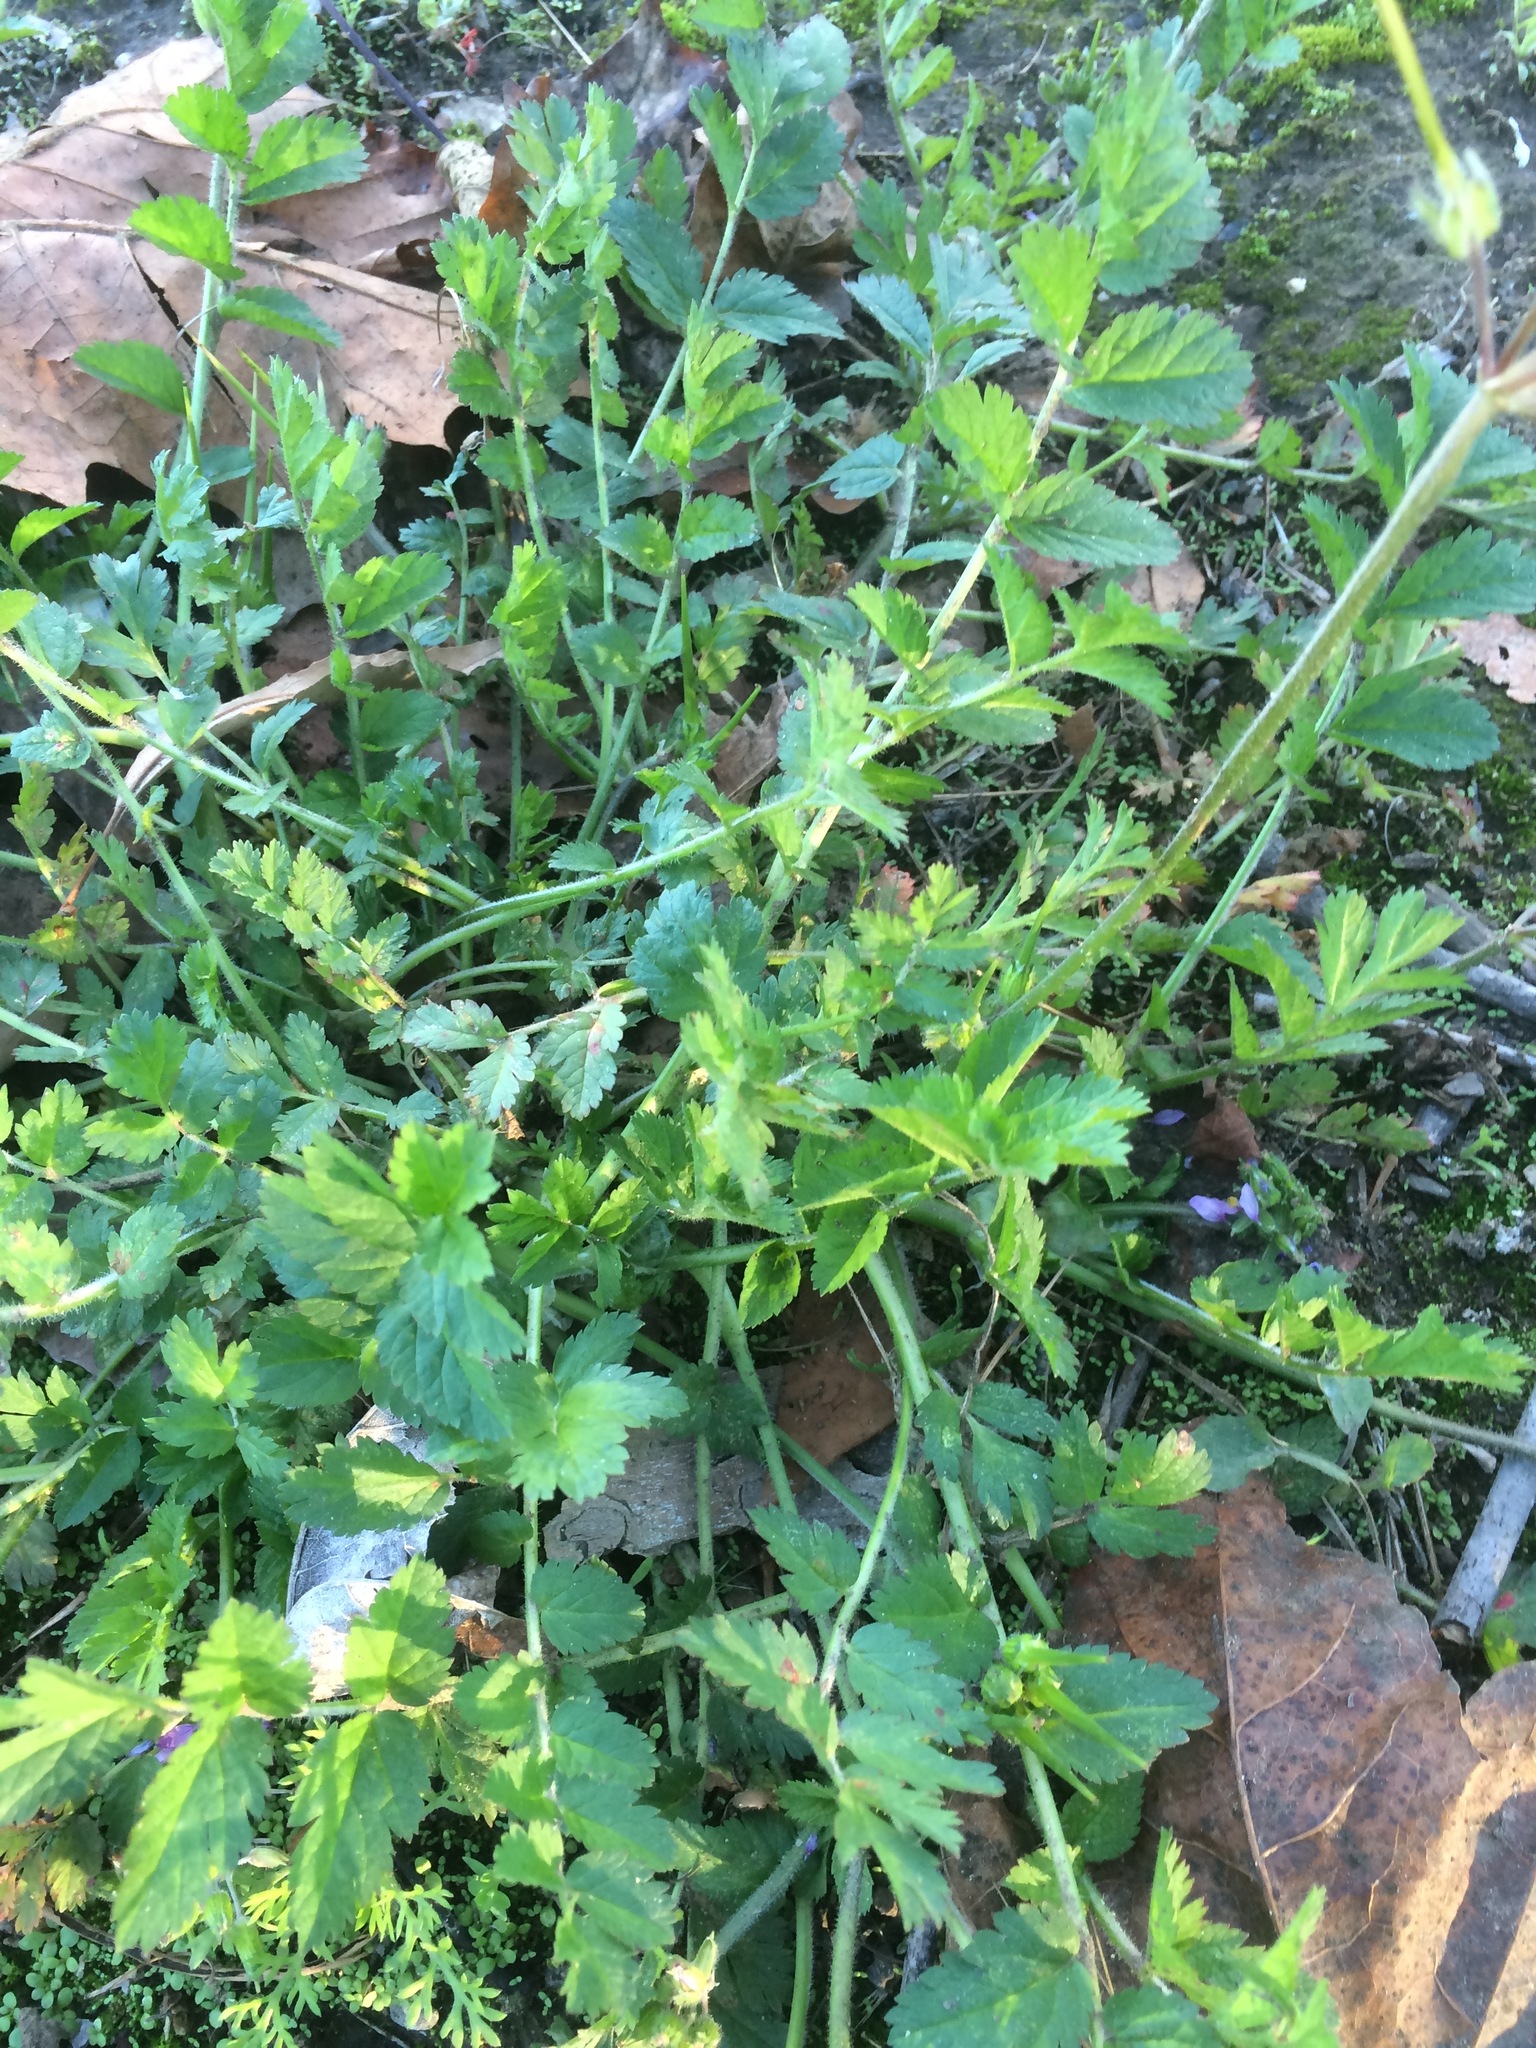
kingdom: Plantae
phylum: Tracheophyta
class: Magnoliopsida
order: Geraniales
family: Geraniaceae
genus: Erodium
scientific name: Erodium moschatum
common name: Musk stork's-bill
